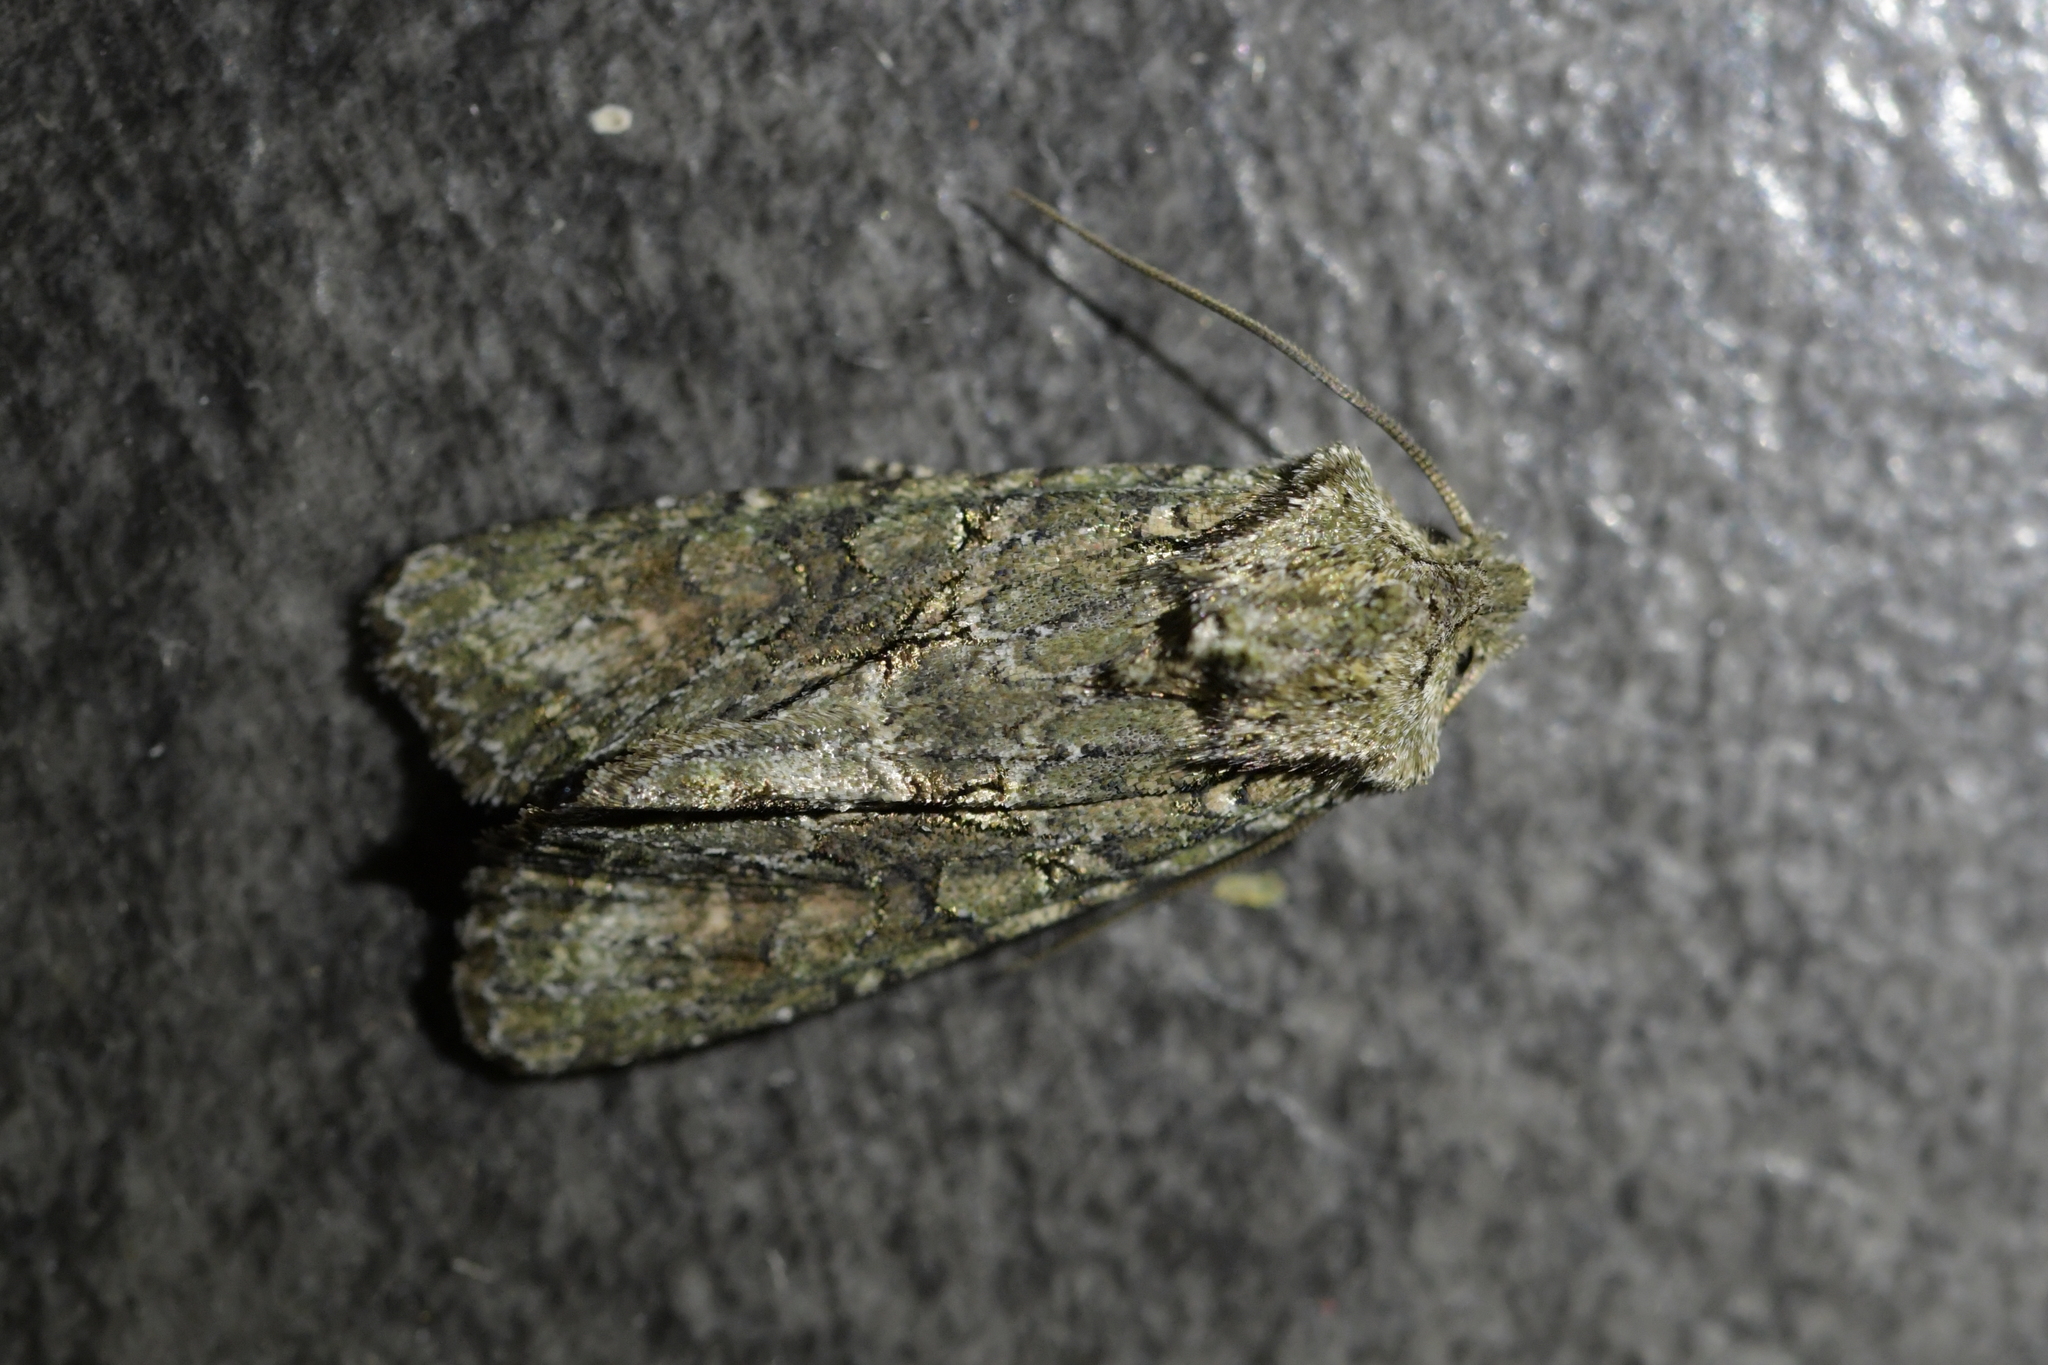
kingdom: Animalia
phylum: Arthropoda
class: Insecta
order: Lepidoptera
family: Noctuidae
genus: Ichneutica
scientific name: Ichneutica mutans
